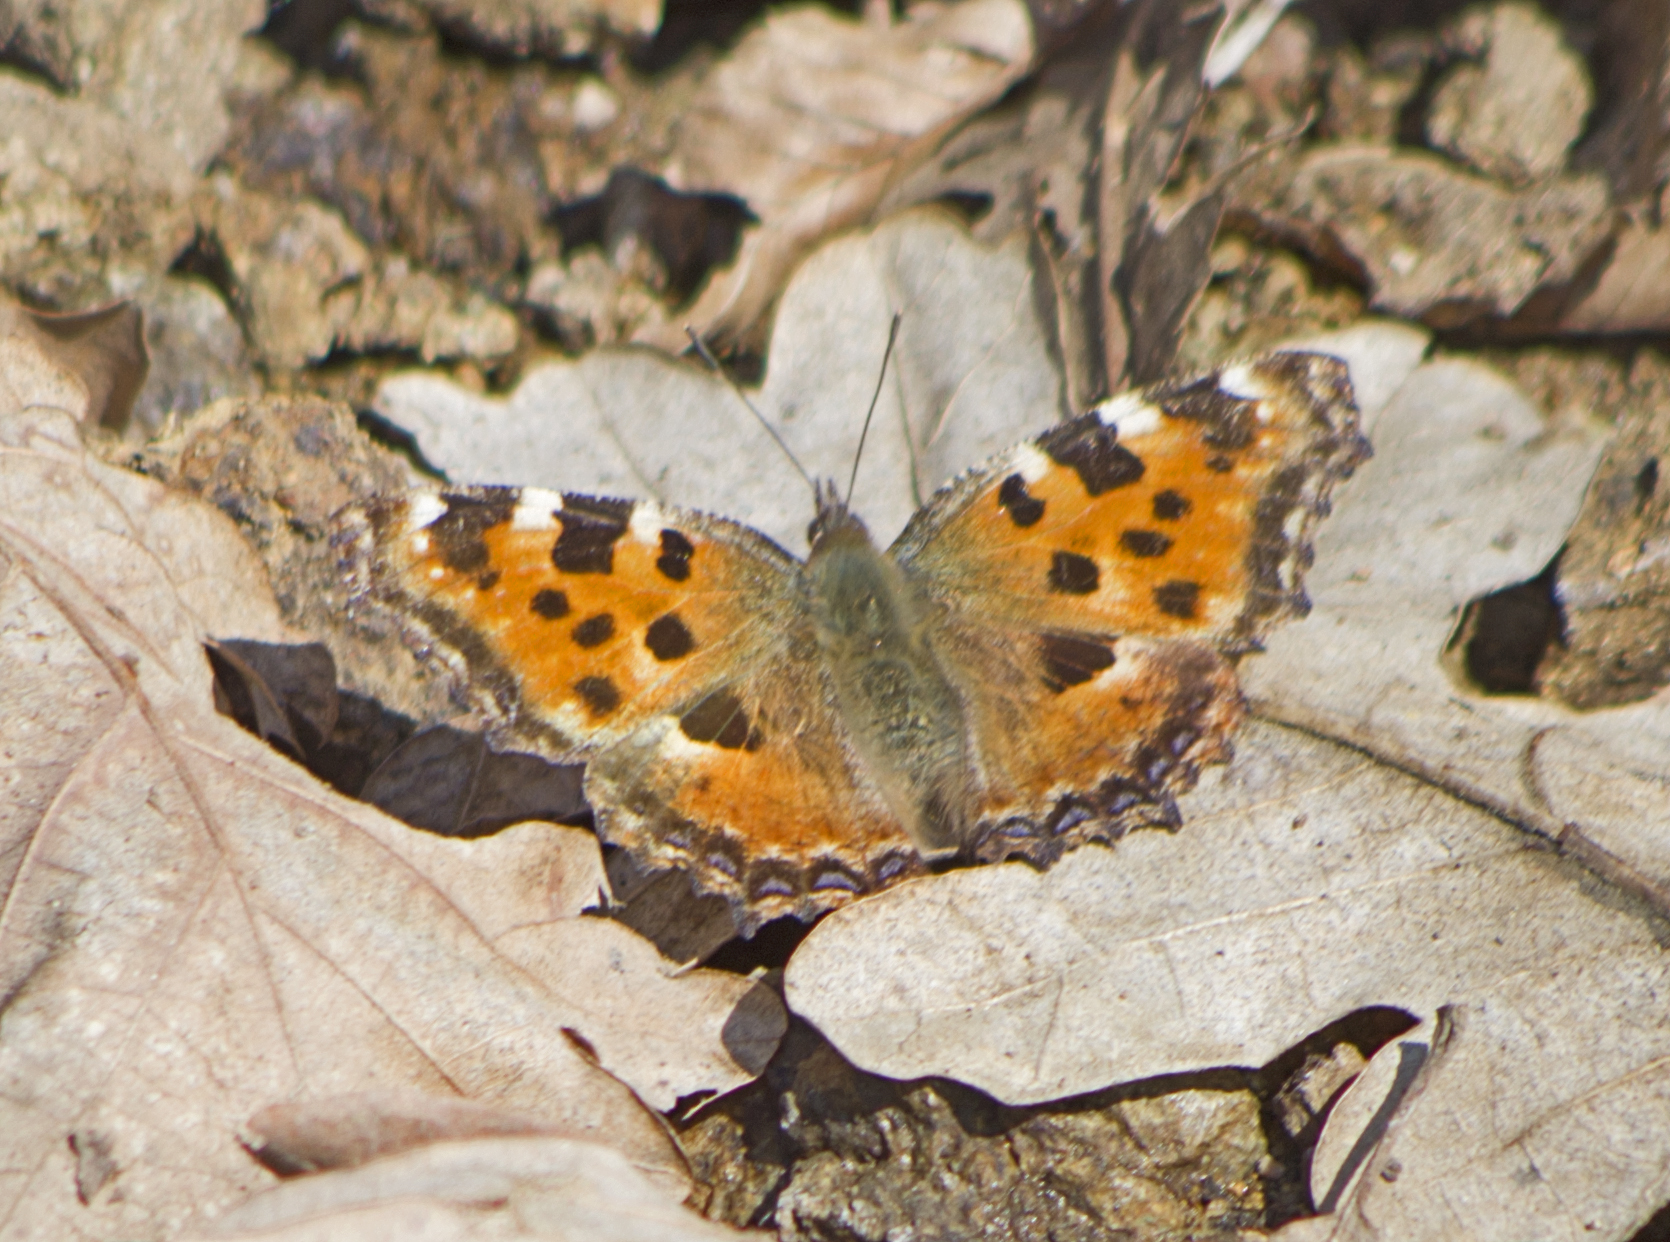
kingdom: Animalia
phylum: Arthropoda
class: Insecta
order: Lepidoptera
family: Nymphalidae
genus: Nymphalis
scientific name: Nymphalis polychloros
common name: Large tortoiseshell
